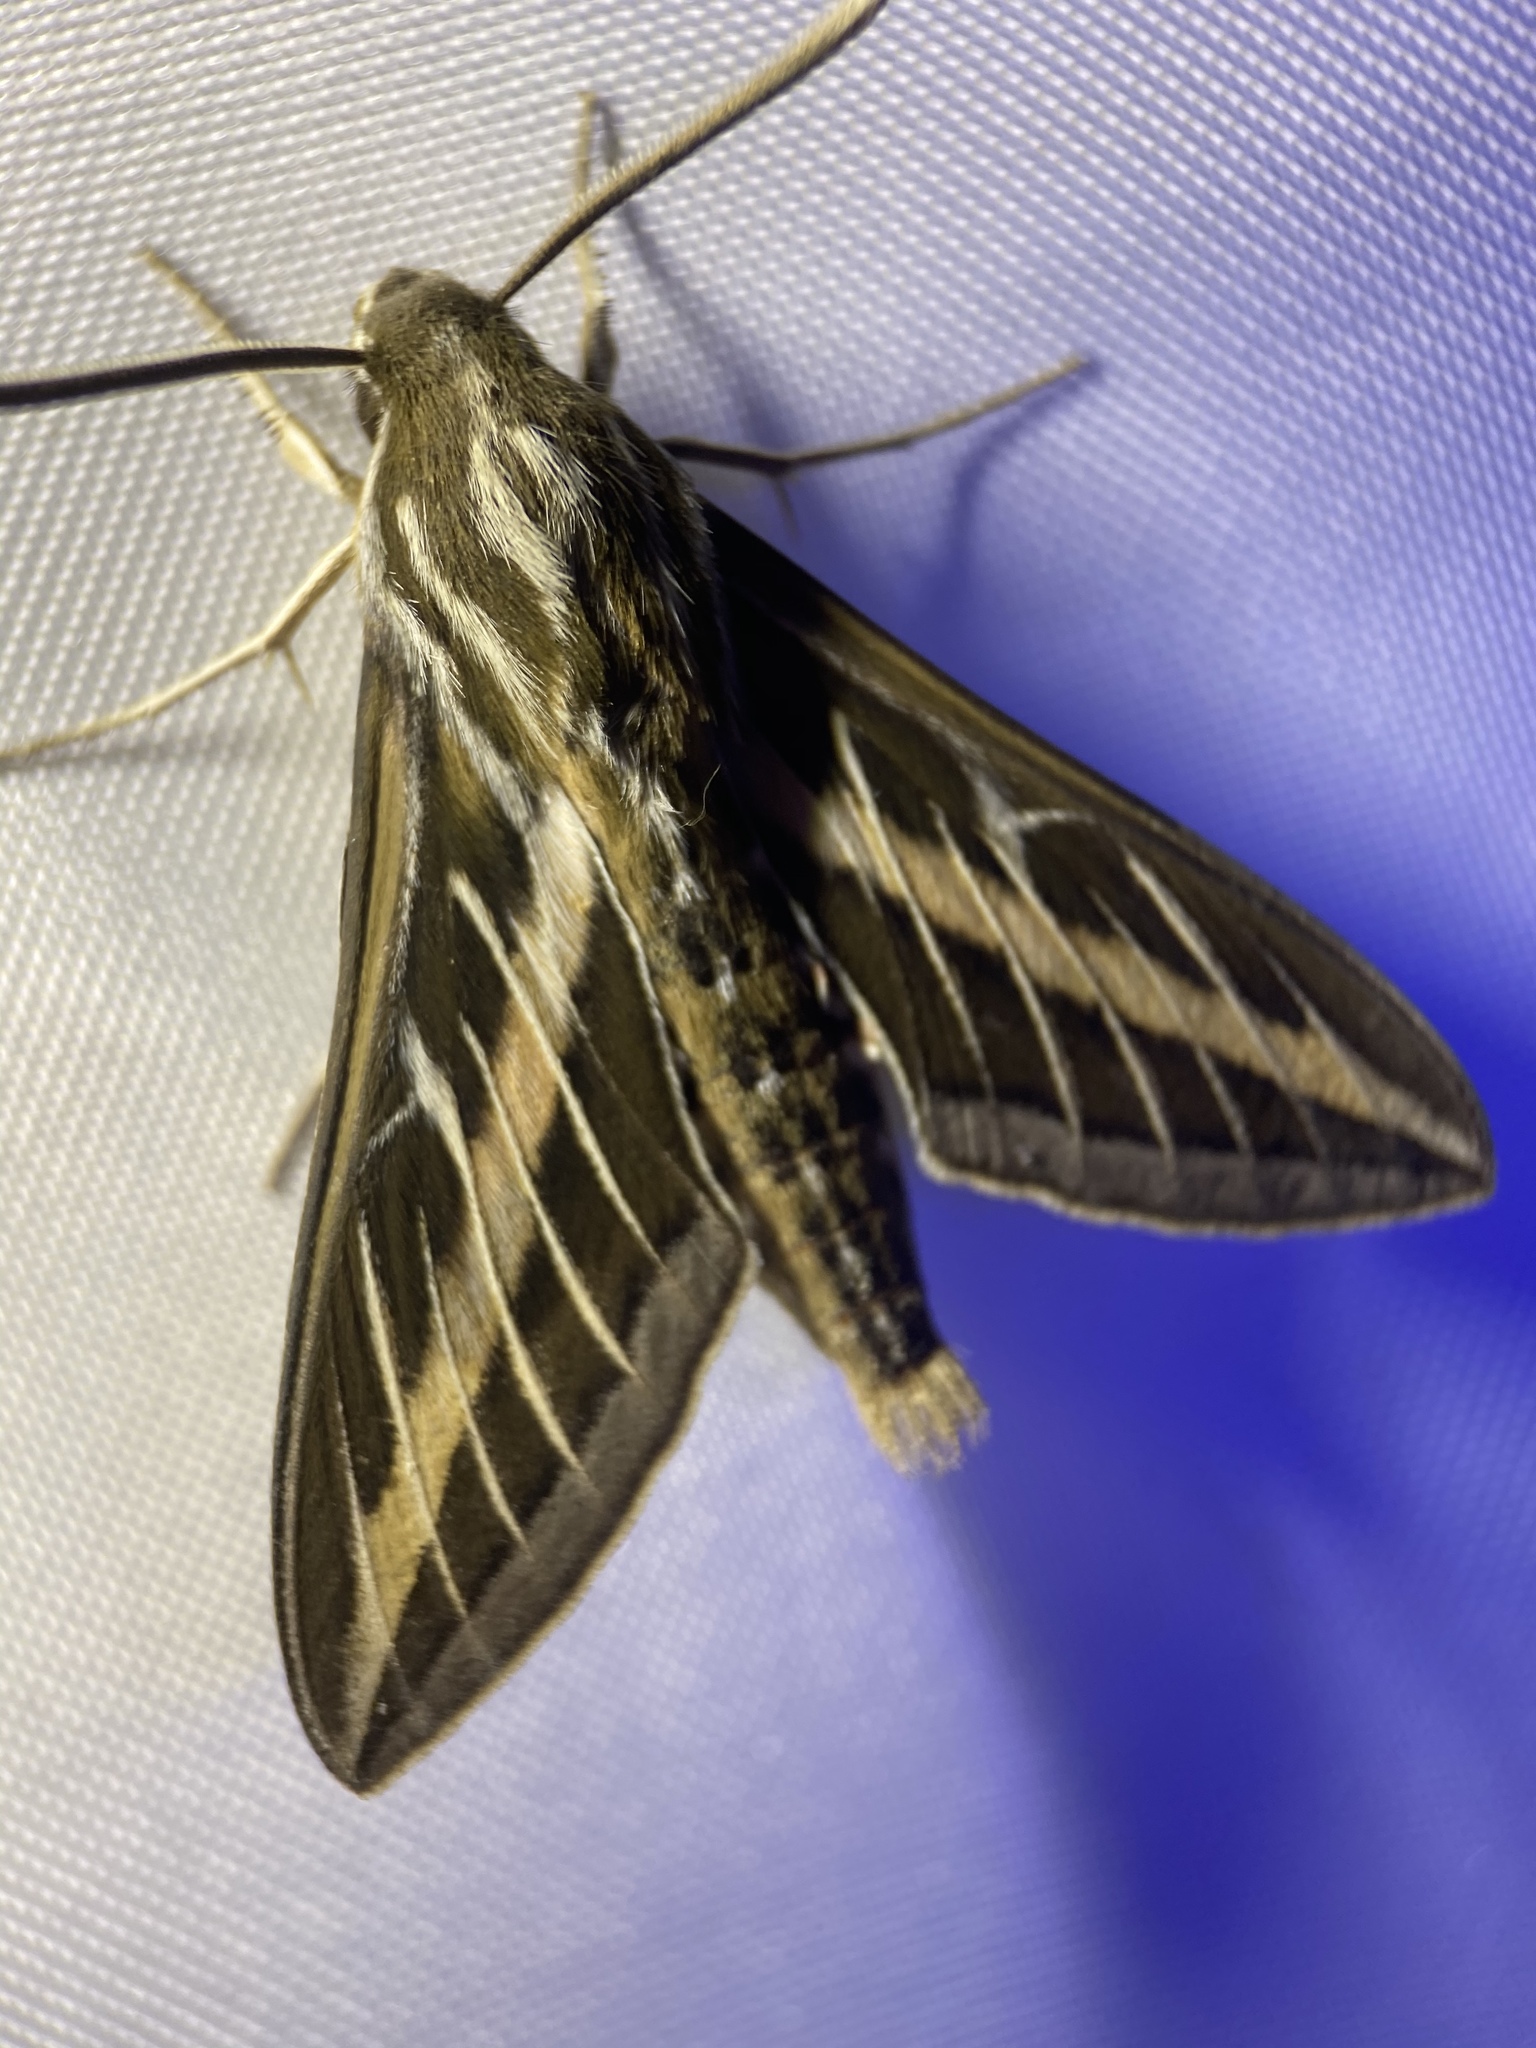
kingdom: Animalia
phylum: Arthropoda
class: Insecta
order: Lepidoptera
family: Sphingidae
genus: Hyles
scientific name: Hyles lineata
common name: White-lined sphinx
